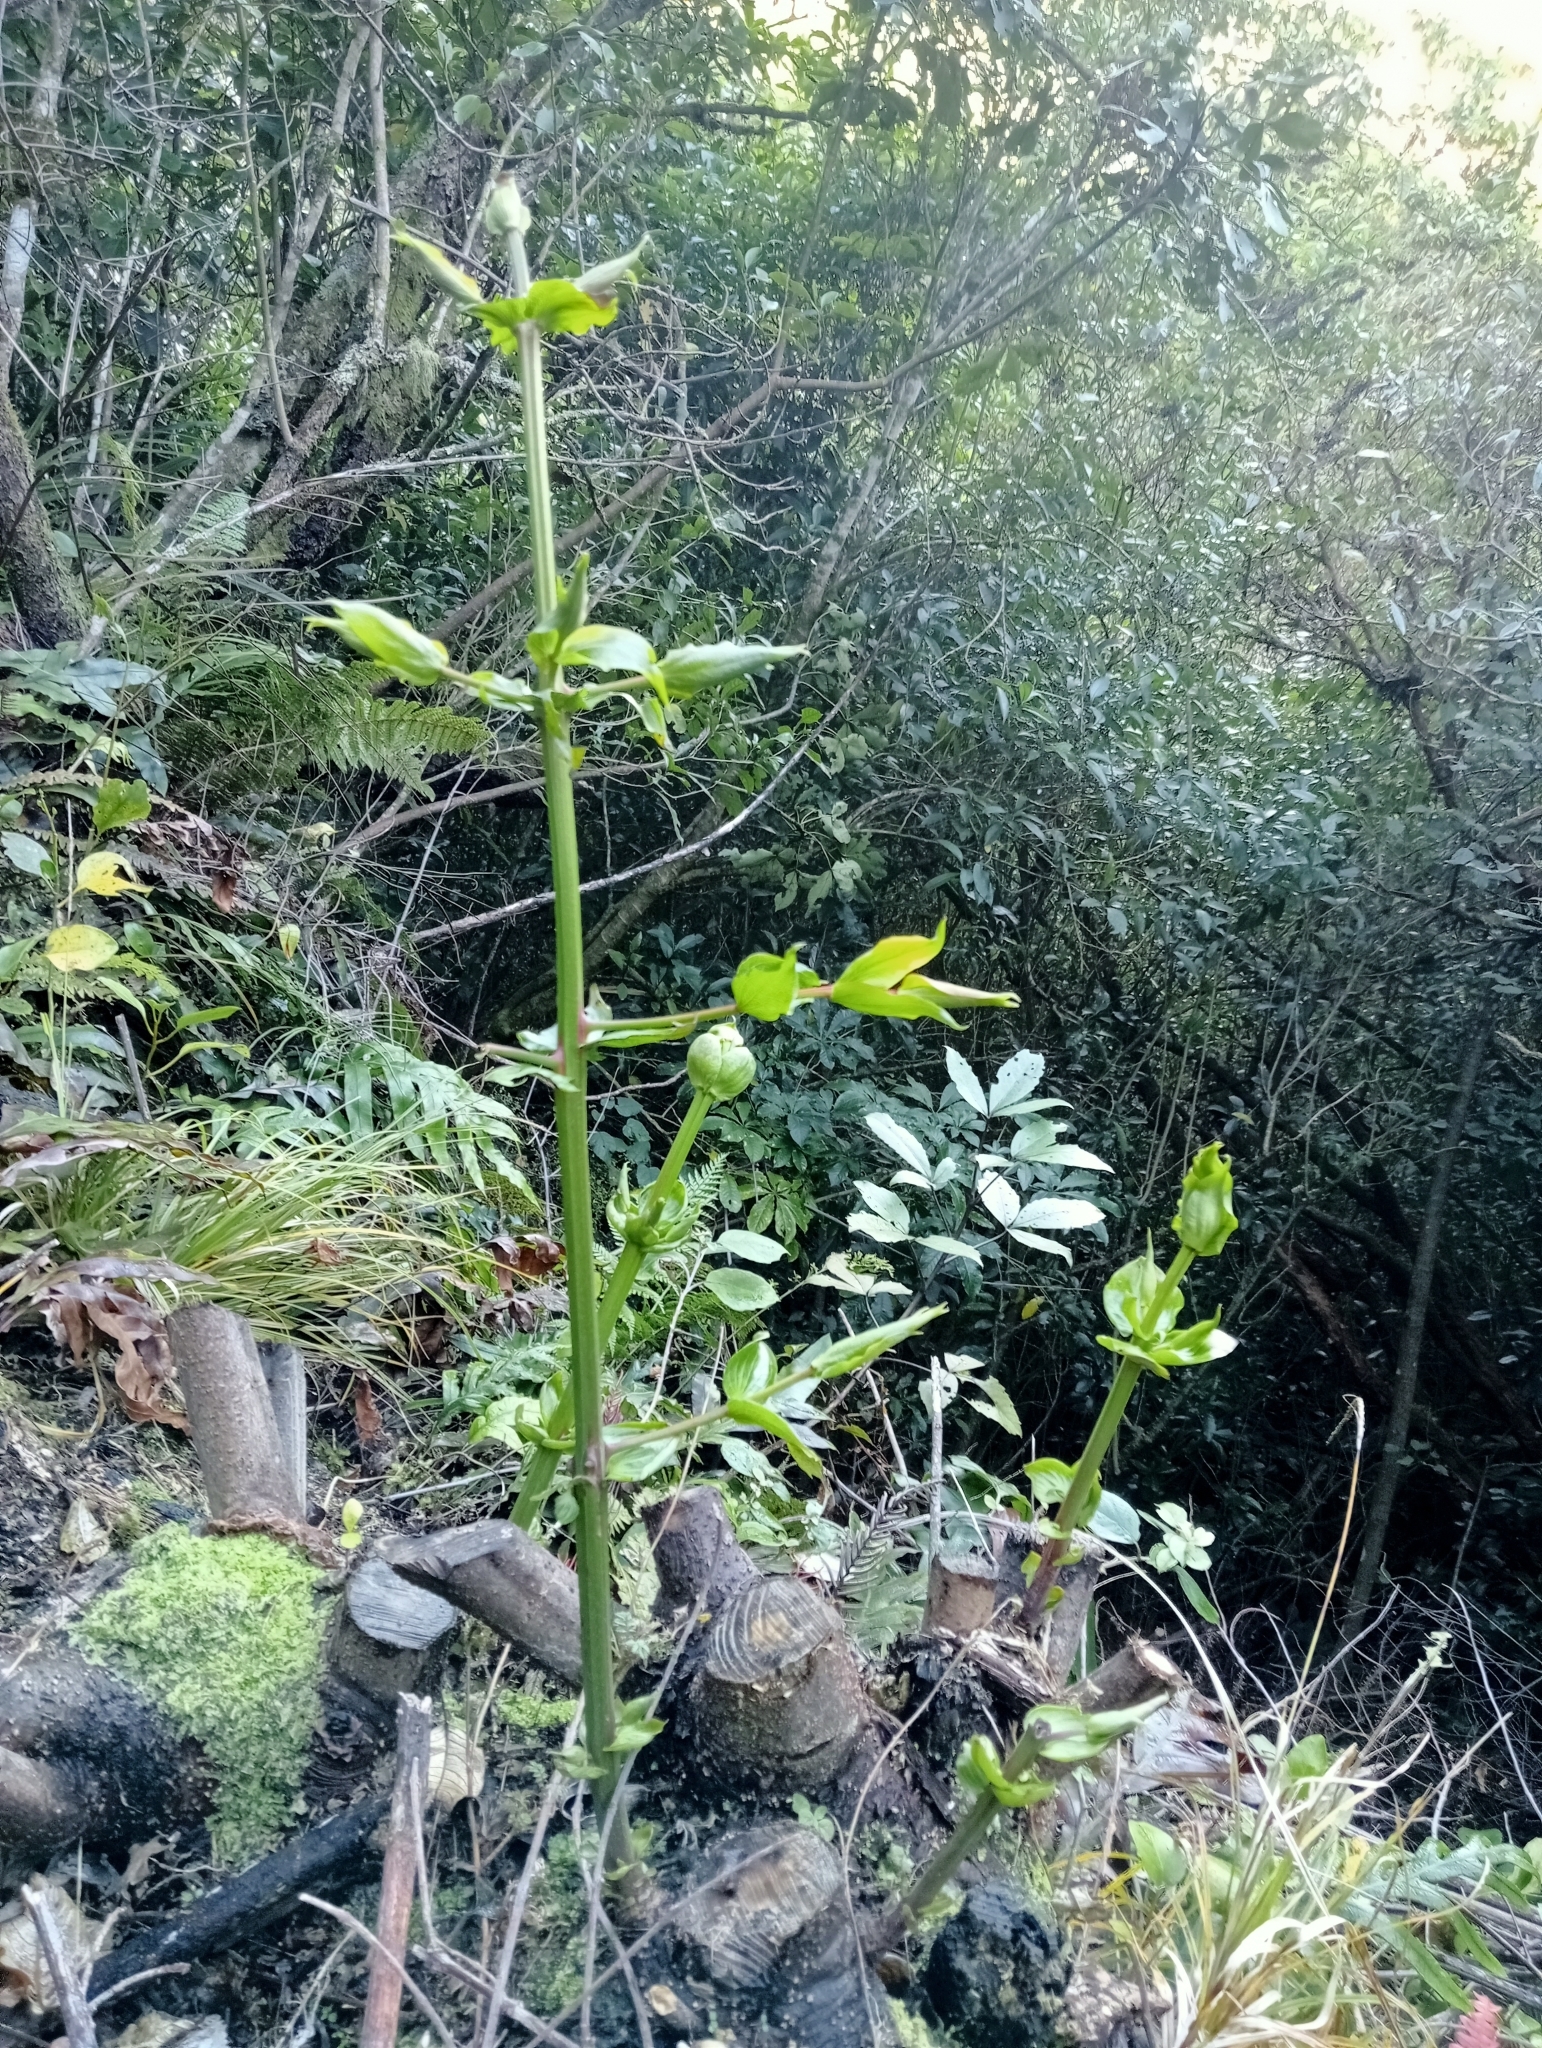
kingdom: Plantae
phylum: Tracheophyta
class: Magnoliopsida
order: Cucurbitales
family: Coriariaceae
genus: Coriaria
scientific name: Coriaria arborea
